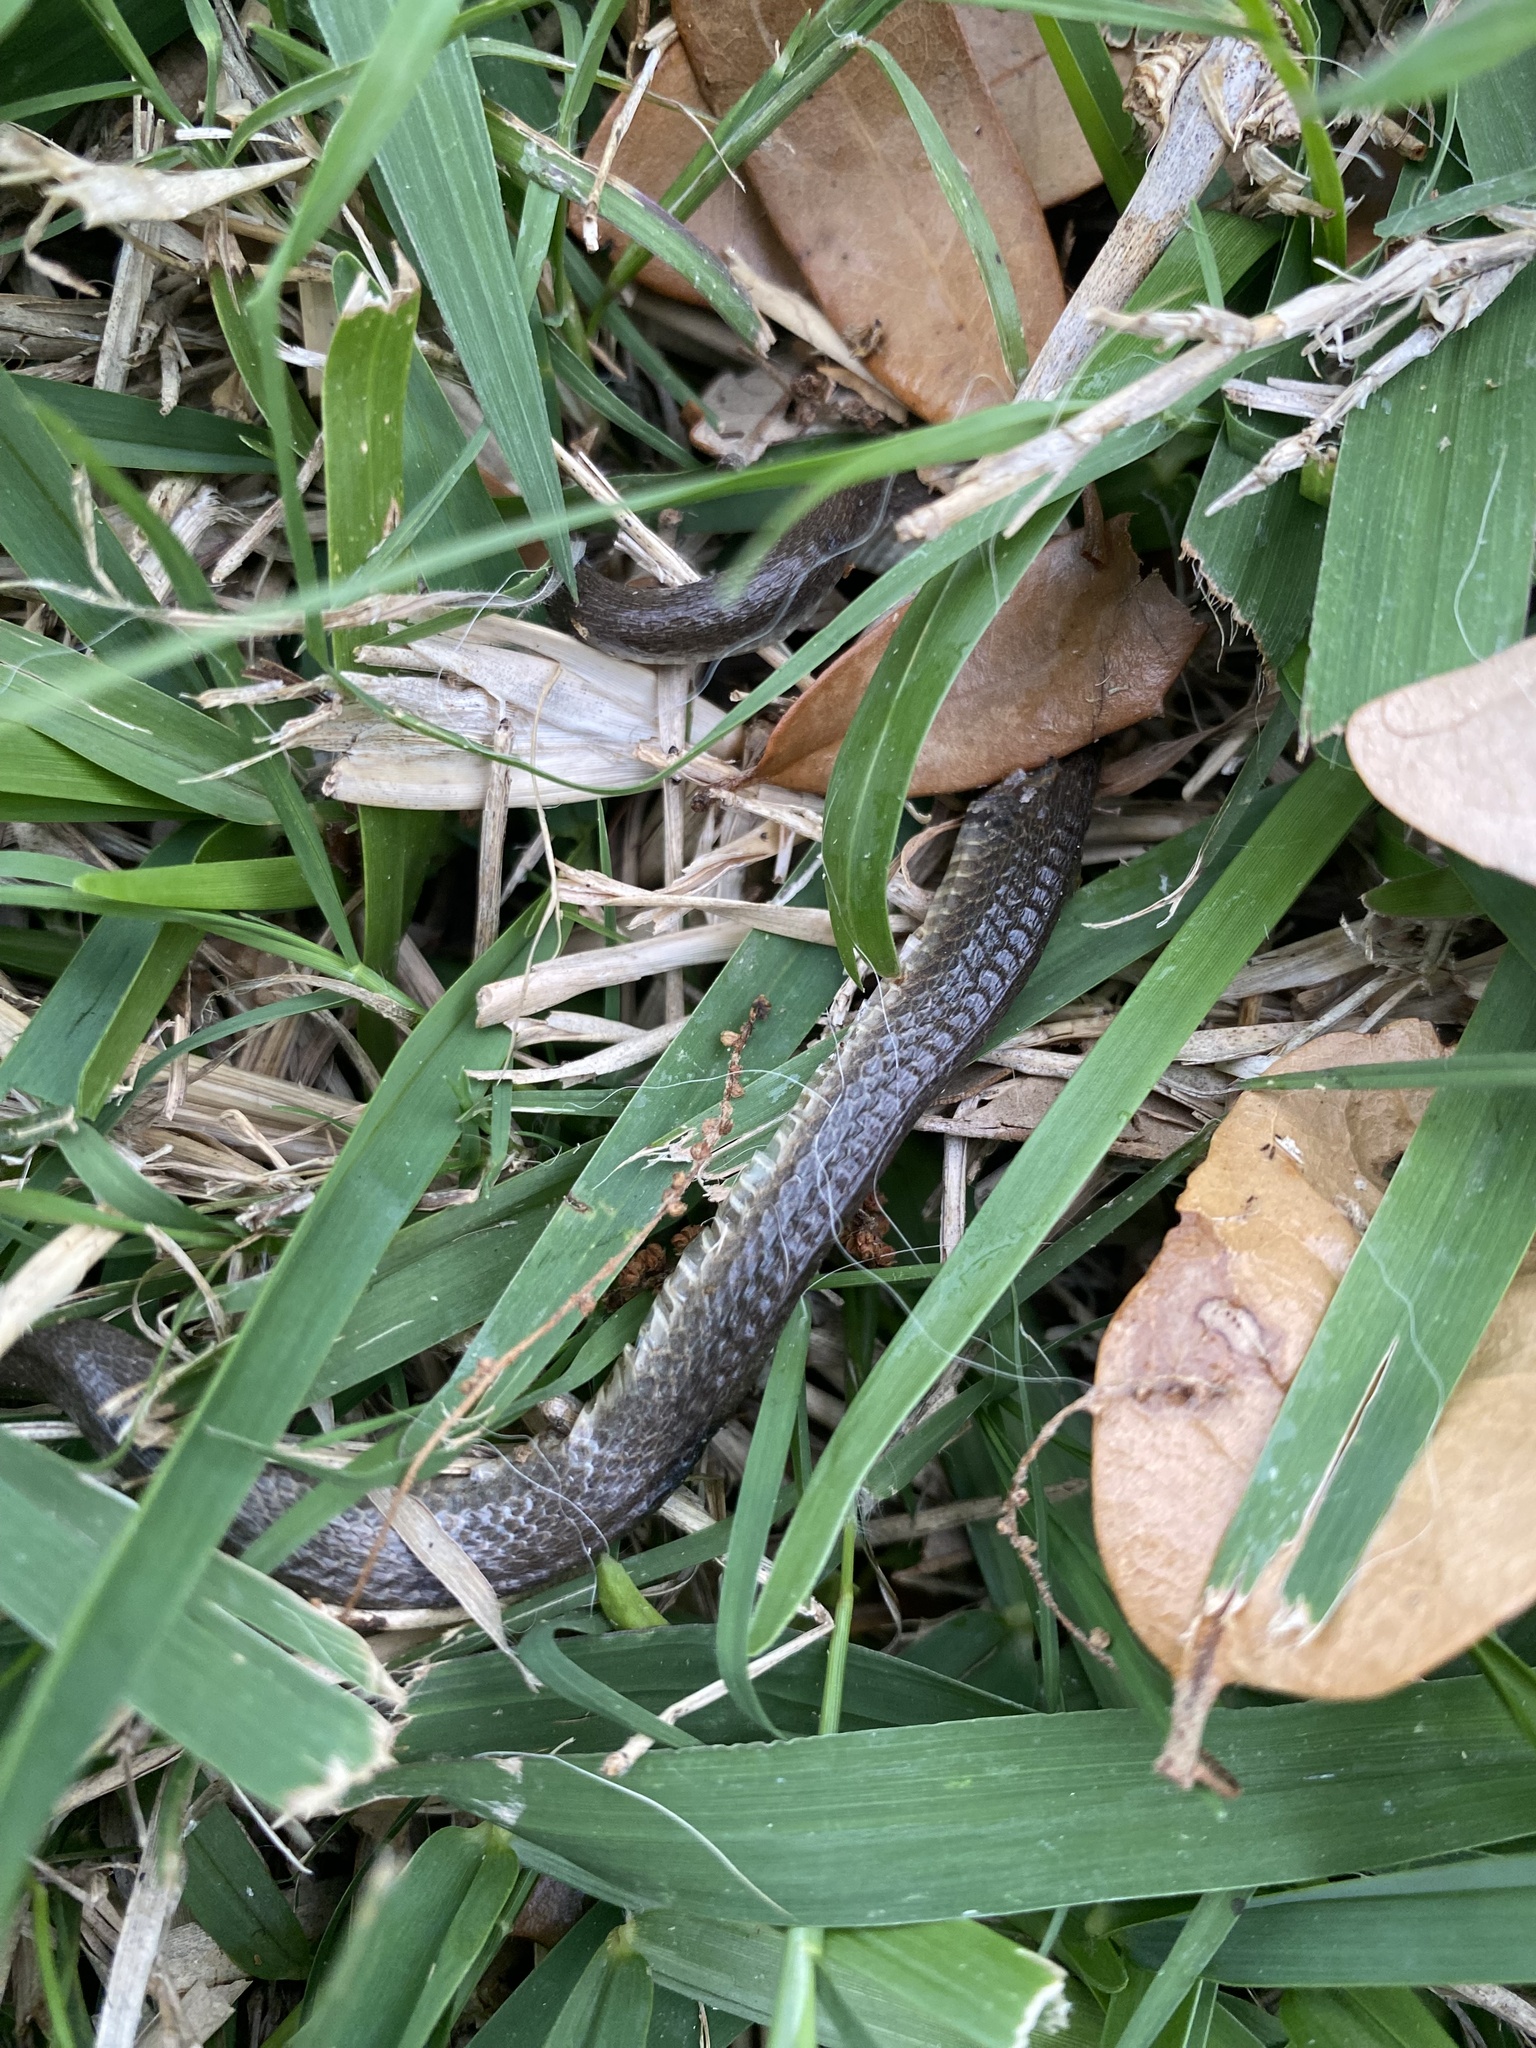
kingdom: Animalia
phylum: Chordata
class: Squamata
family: Colubridae
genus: Haldea
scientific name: Haldea striatula
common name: Rough earth snake
